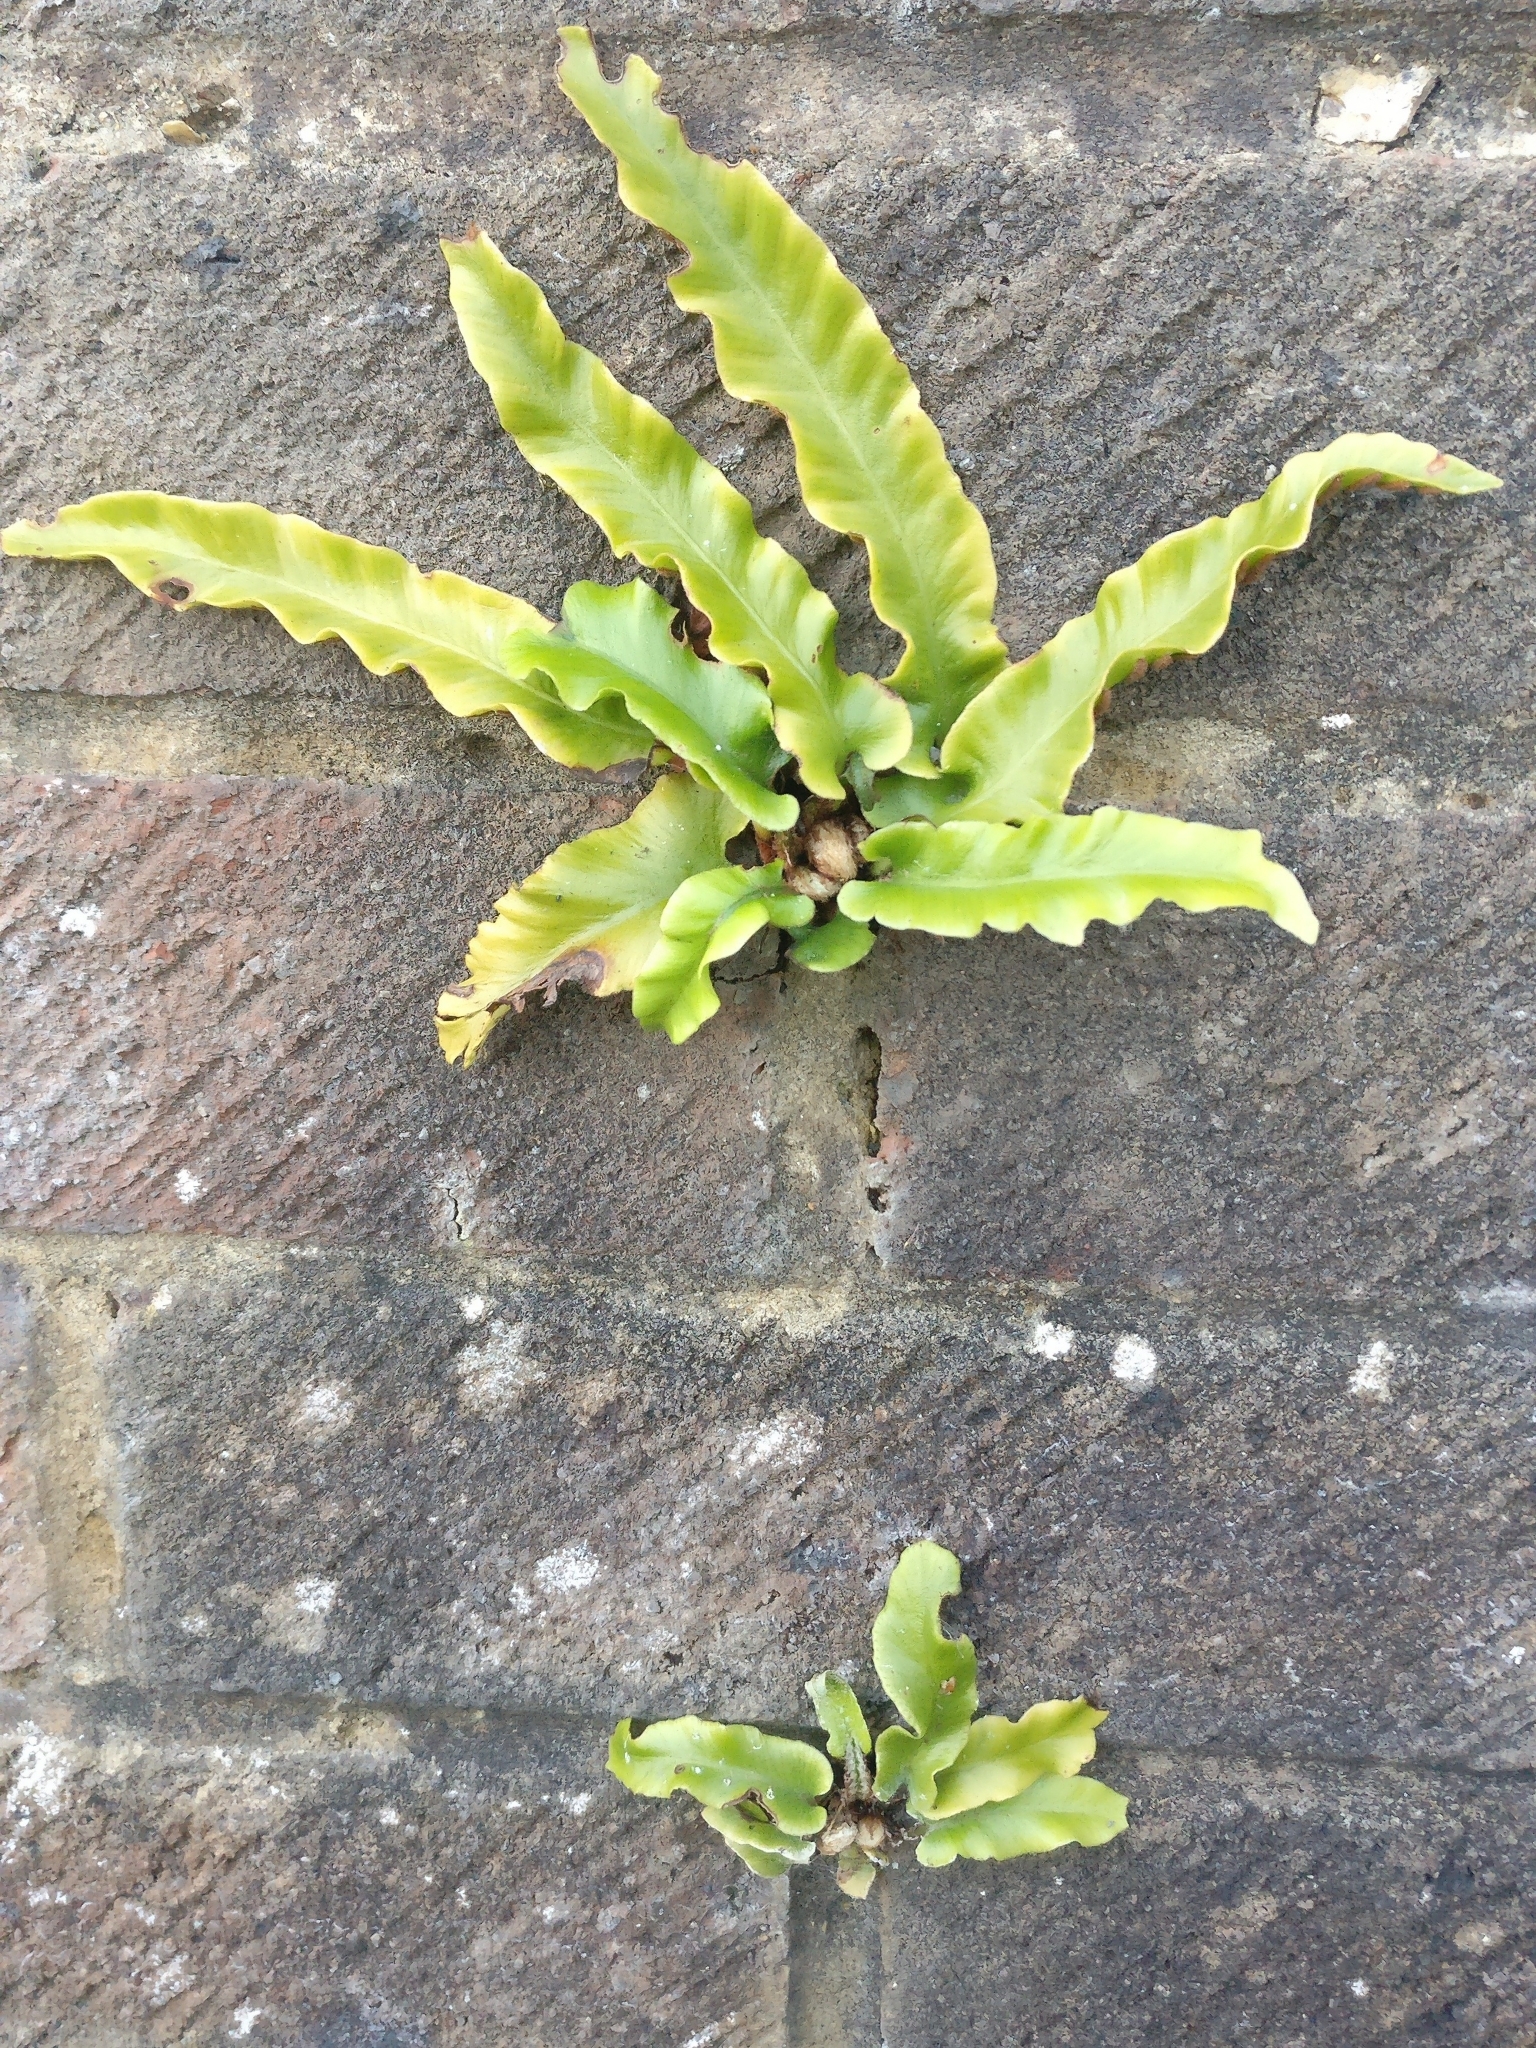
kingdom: Plantae
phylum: Tracheophyta
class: Polypodiopsida
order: Polypodiales
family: Aspleniaceae
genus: Asplenium
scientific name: Asplenium scolopendrium
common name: Hart's-tongue fern
